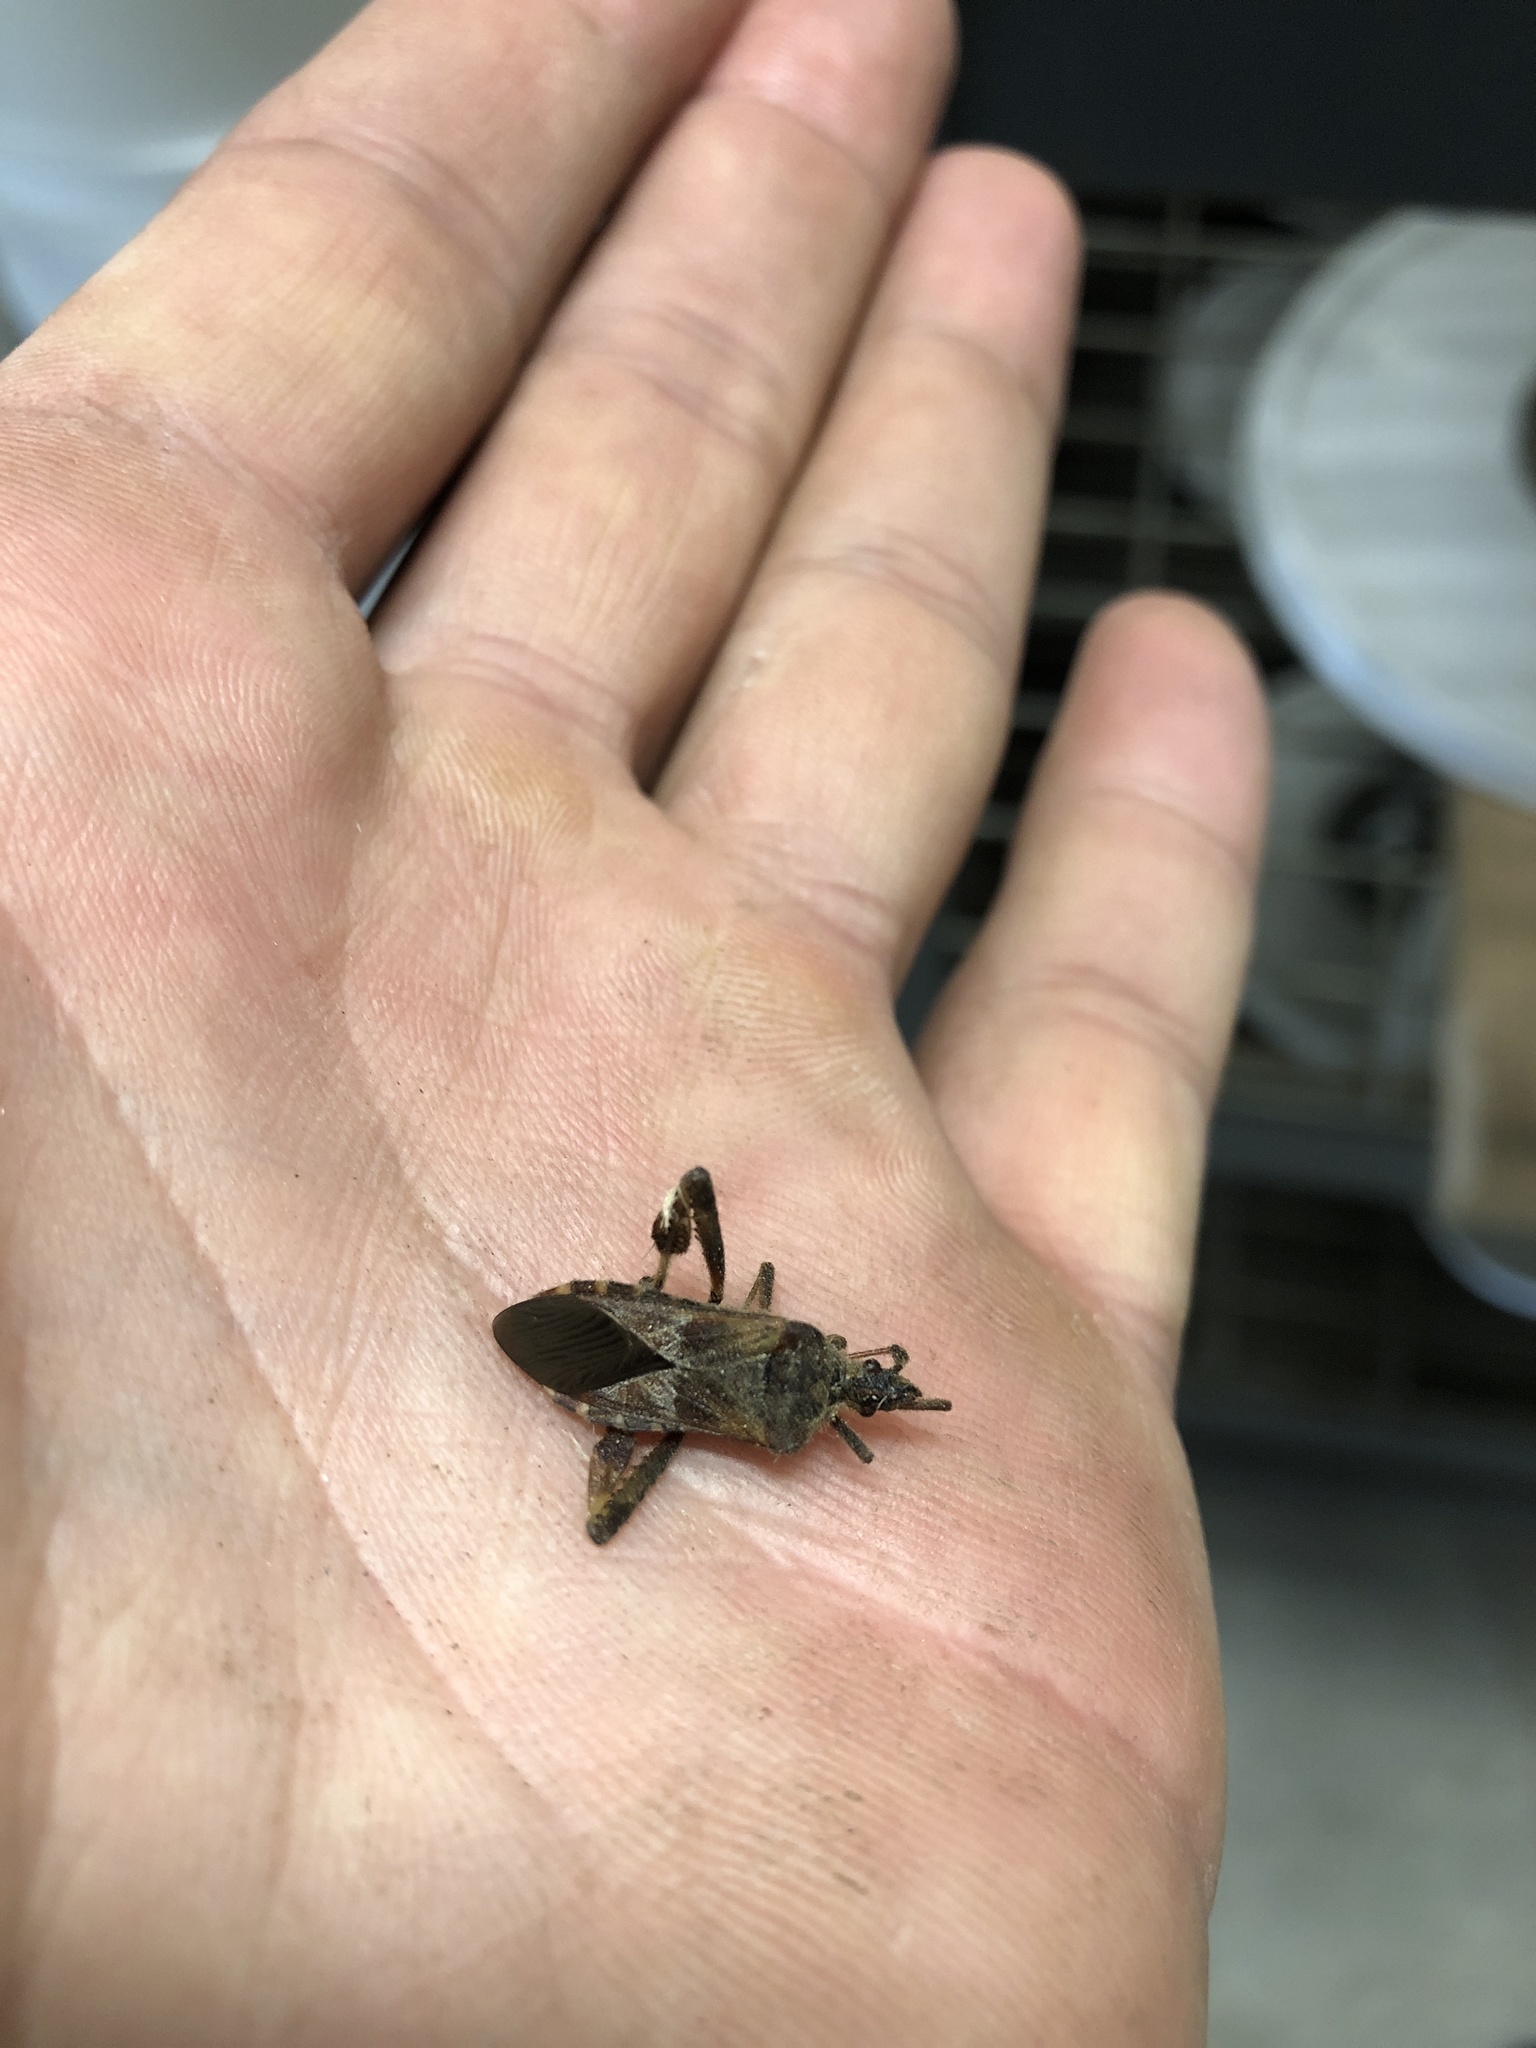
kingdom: Animalia
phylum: Arthropoda
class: Insecta
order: Hemiptera
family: Coreidae
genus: Leptoglossus
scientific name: Leptoglossus occidentalis
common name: Western conifer-seed bug
